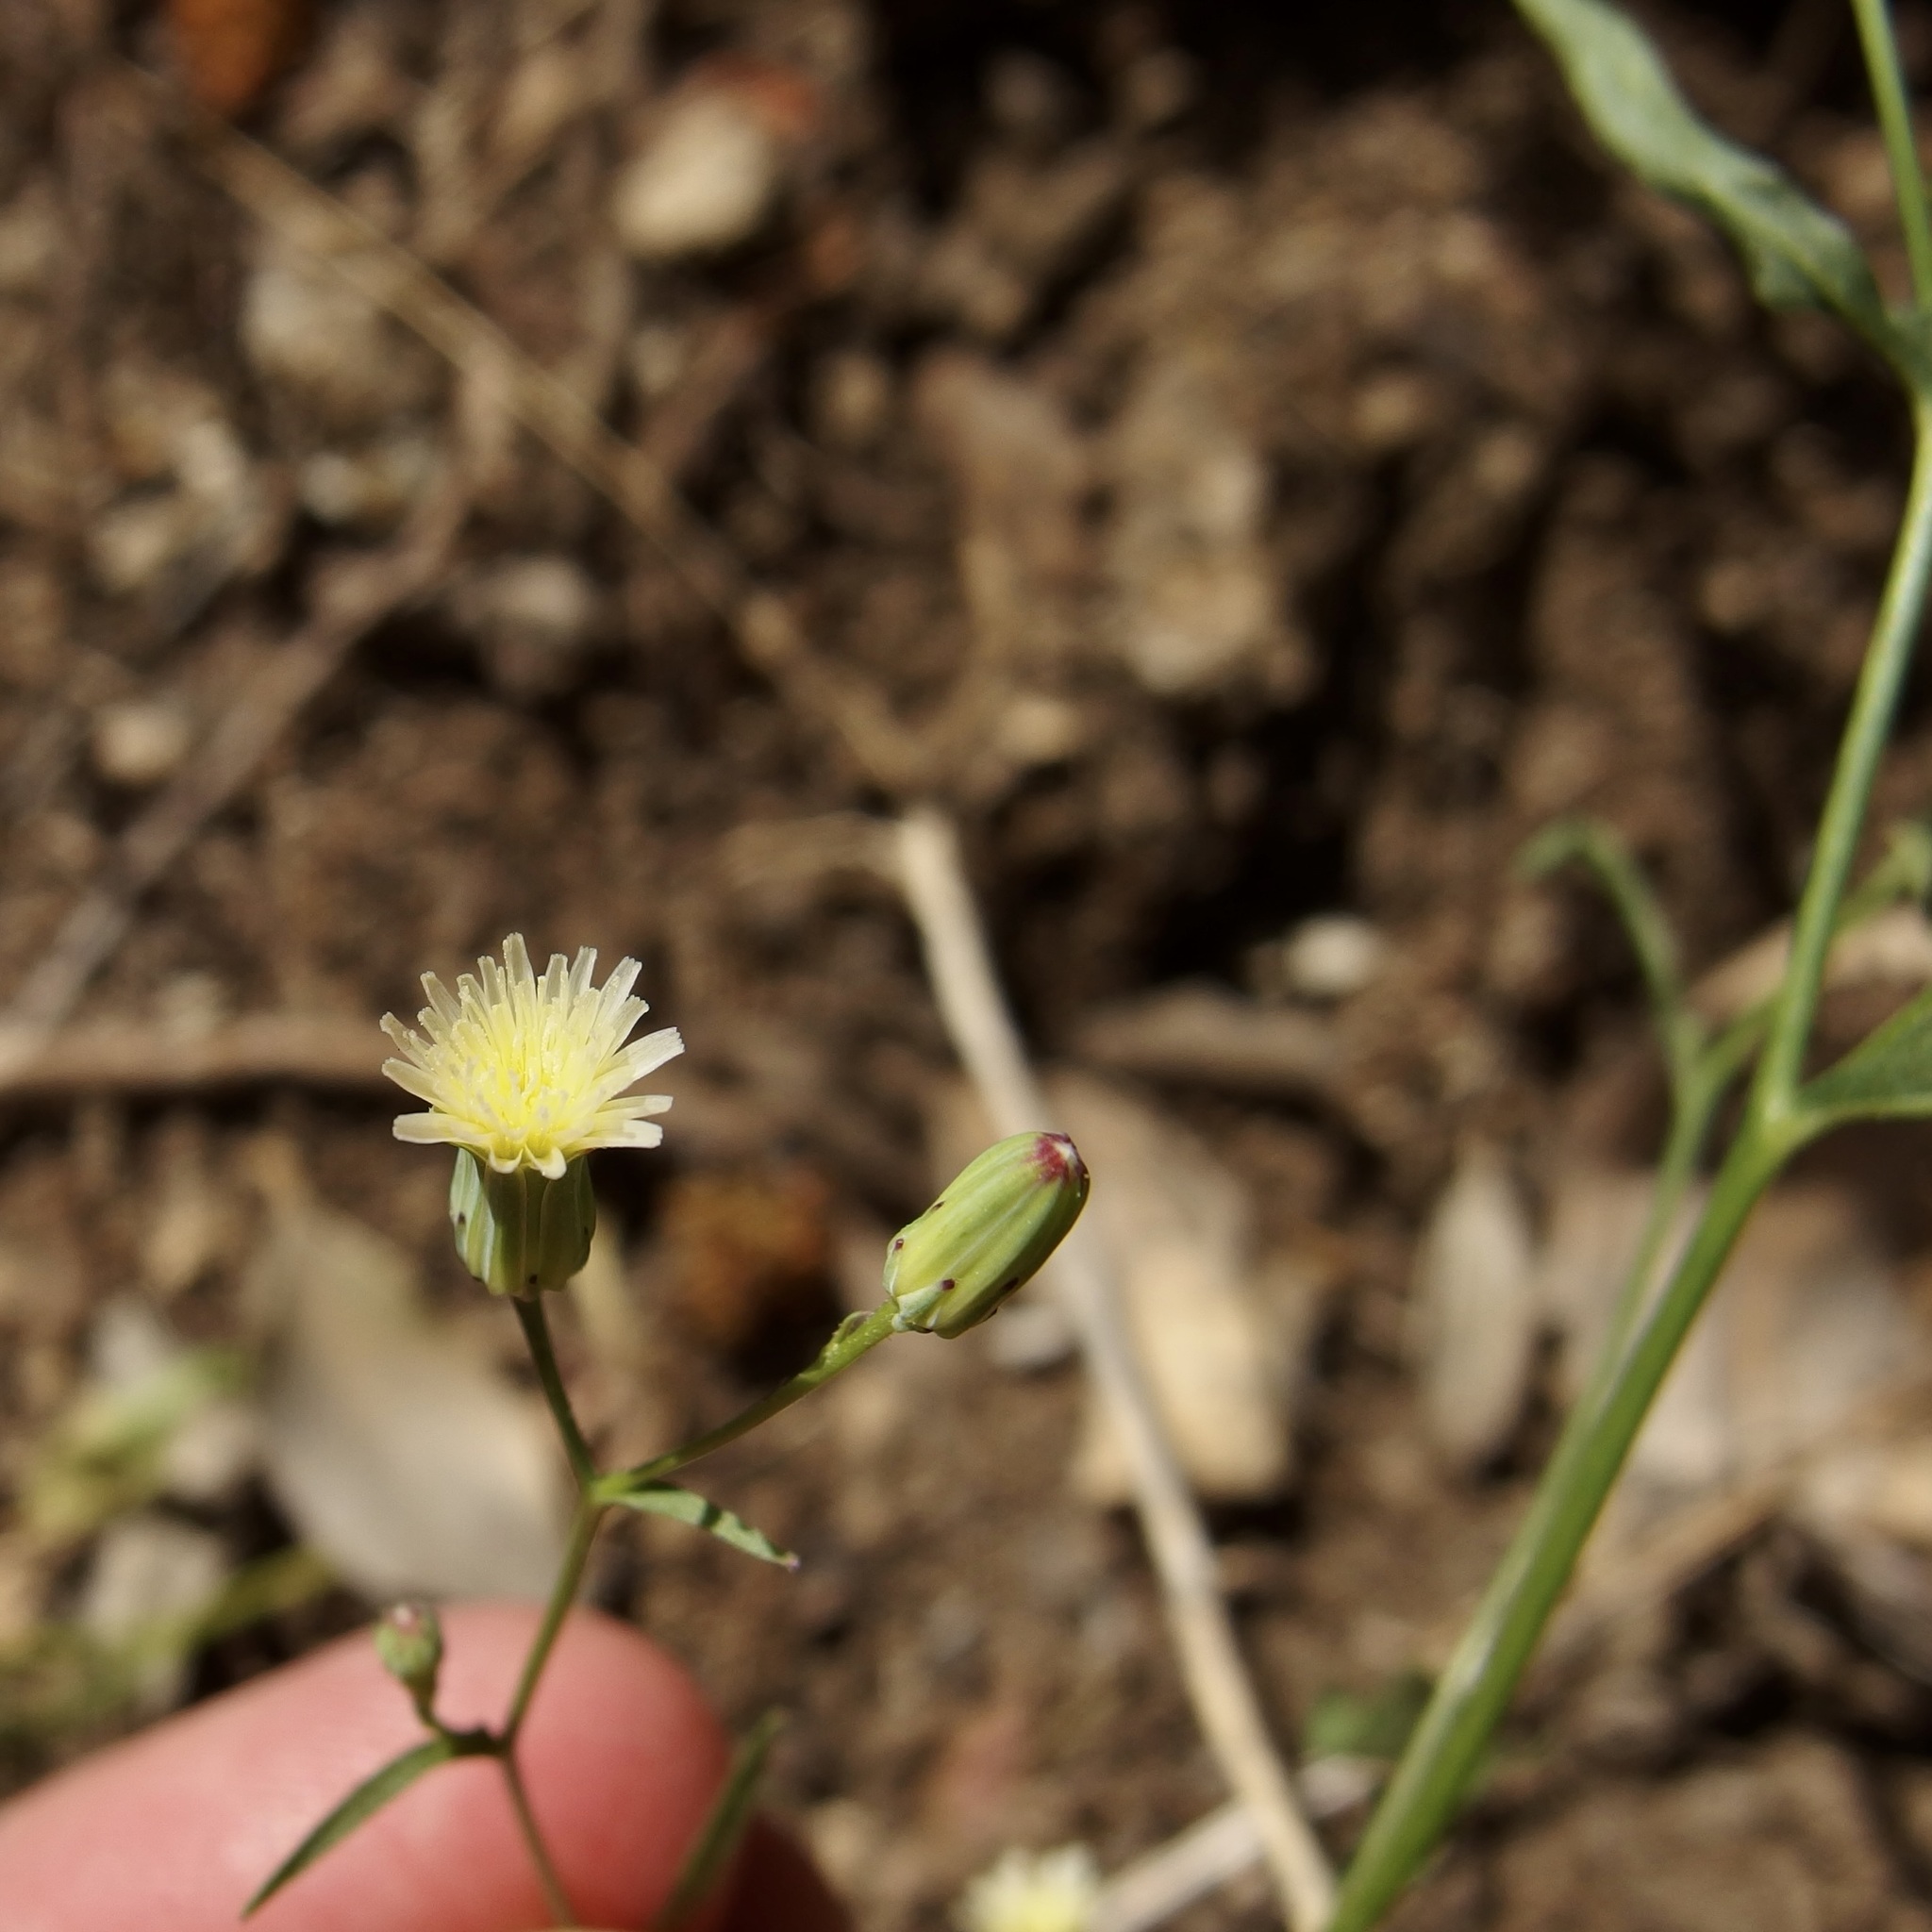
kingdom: Plantae
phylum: Tracheophyta
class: Magnoliopsida
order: Asterales
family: Asteraceae
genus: Malacothrix
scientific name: Malacothrix stebbinsii
